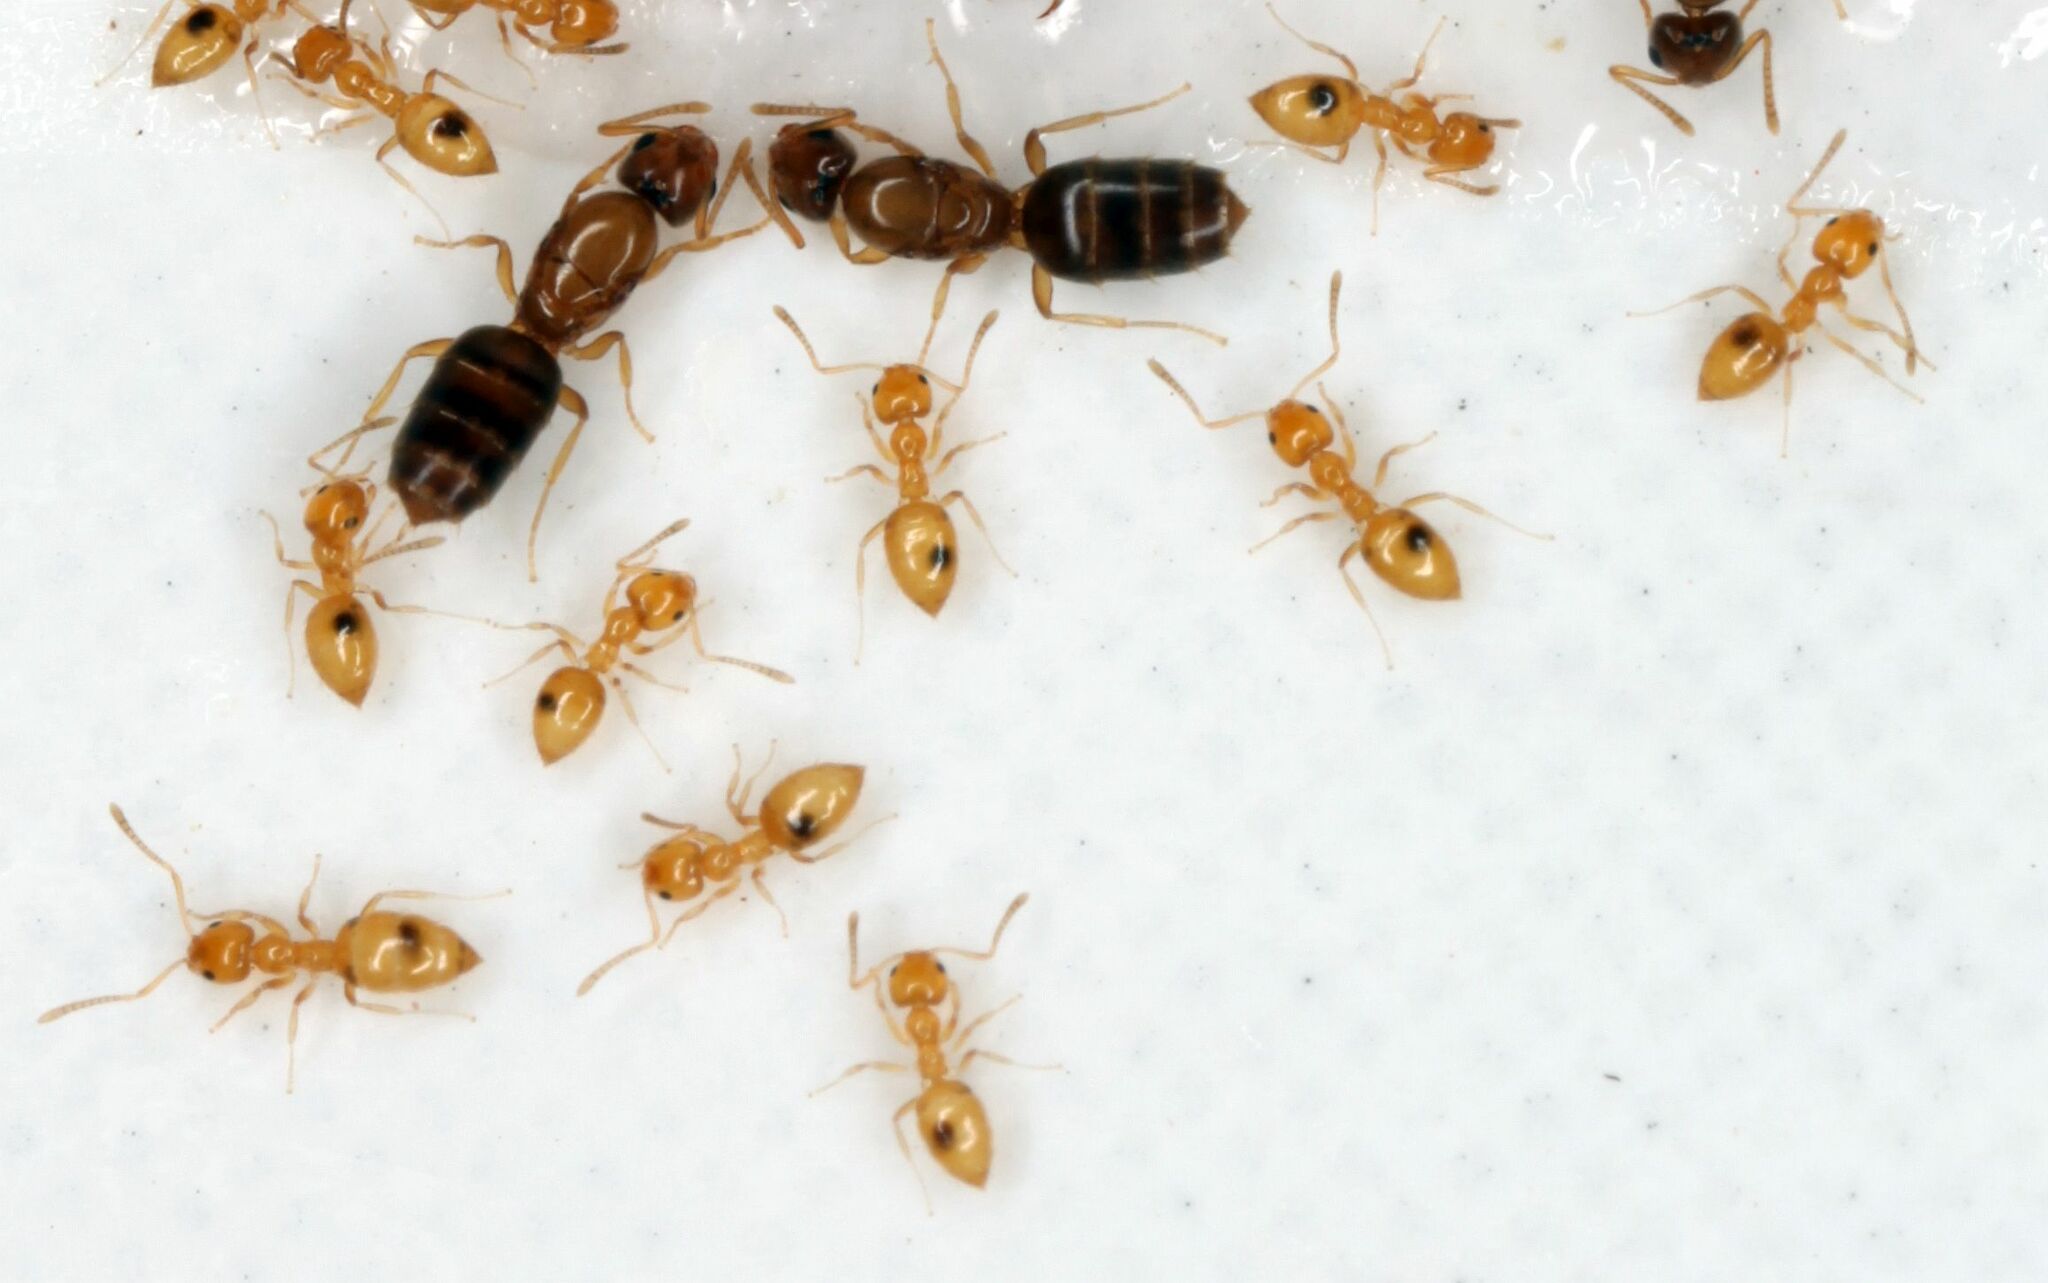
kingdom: Animalia
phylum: Arthropoda
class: Insecta
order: Hymenoptera
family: Formicidae
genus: Plagiolepis
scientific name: Plagiolepis alluaudi
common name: Little yellow ant
